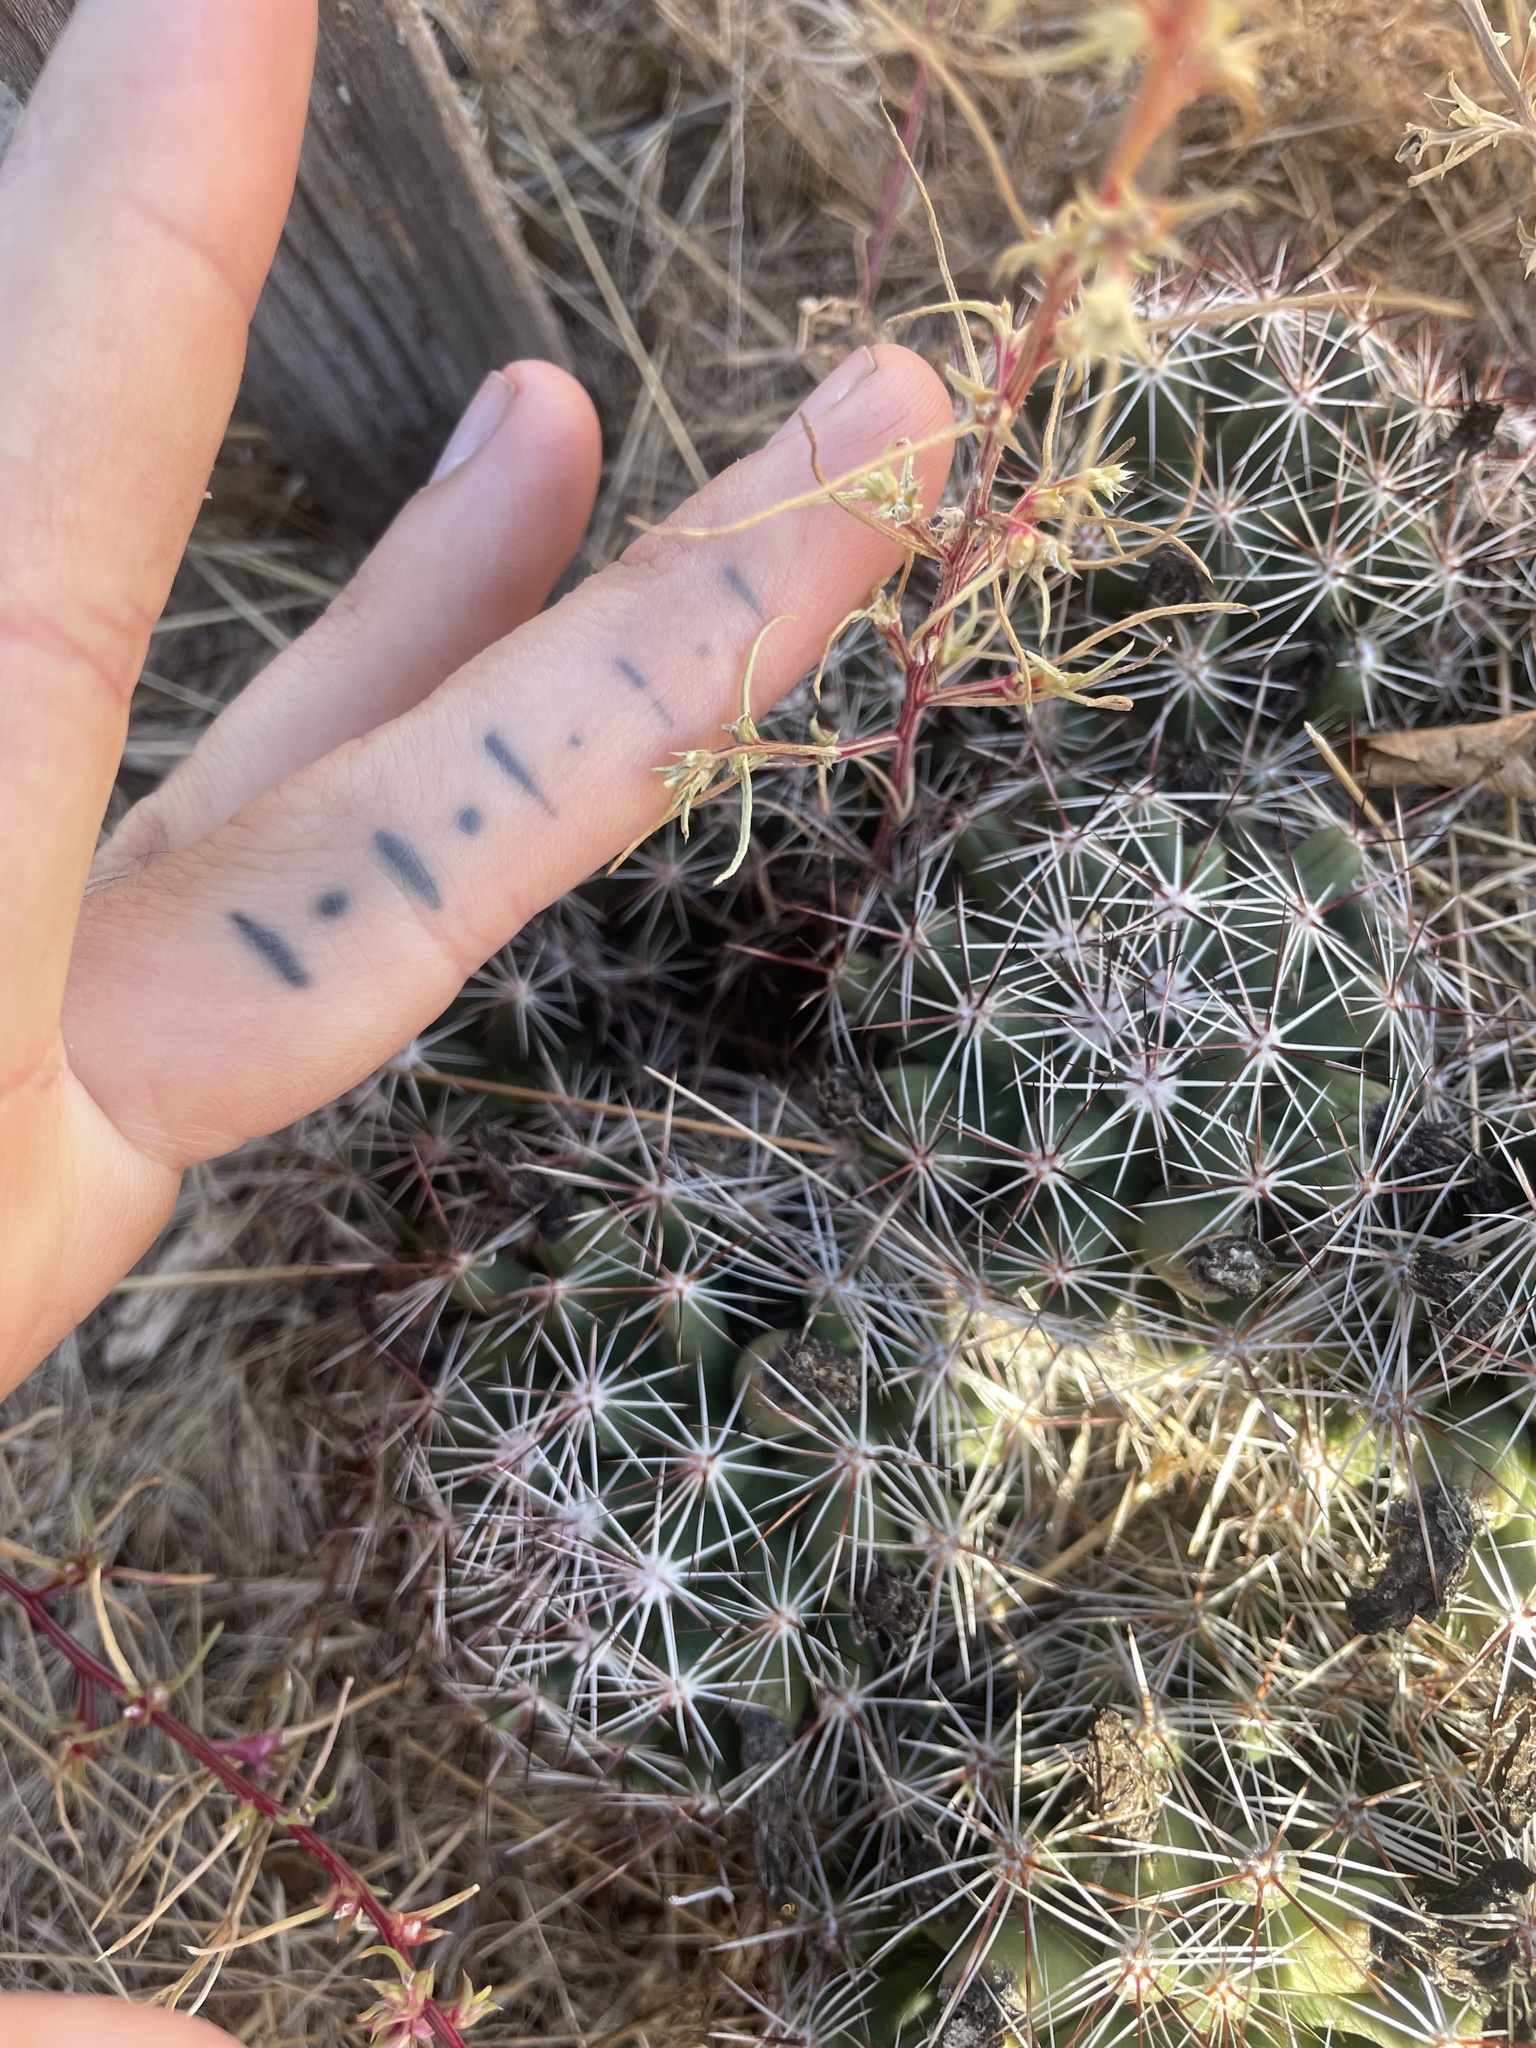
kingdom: Plantae
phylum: Tracheophyta
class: Magnoliopsida
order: Caryophyllales
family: Cactaceae
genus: Pelecyphora
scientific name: Pelecyphora vivipara
